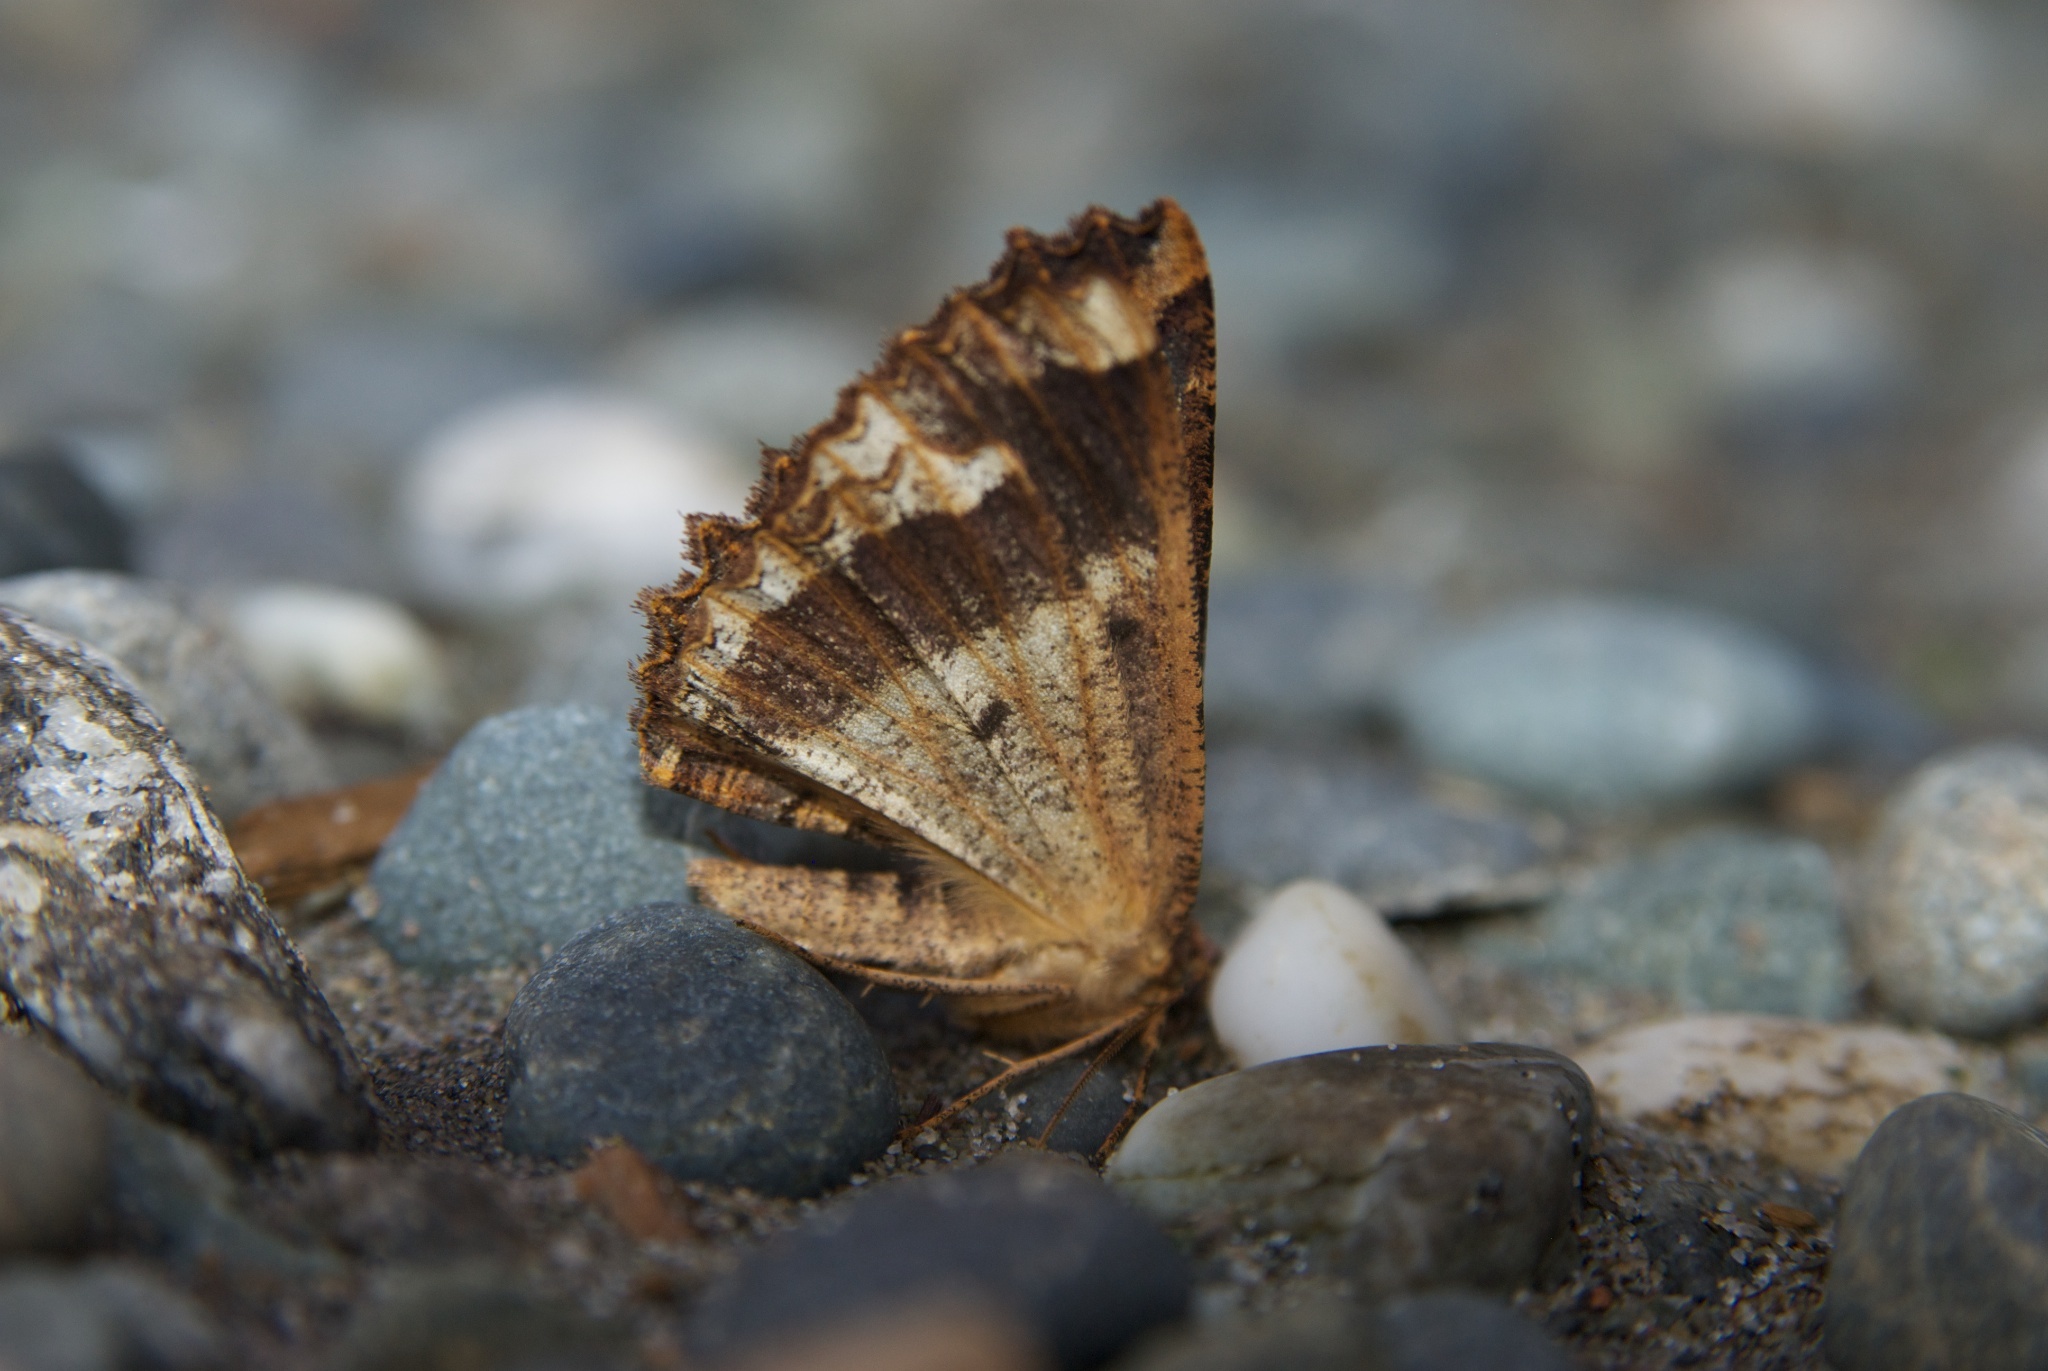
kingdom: Animalia
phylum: Arthropoda
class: Insecta
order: Lepidoptera
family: Geometridae
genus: Gellonia
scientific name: Gellonia dejectaria
